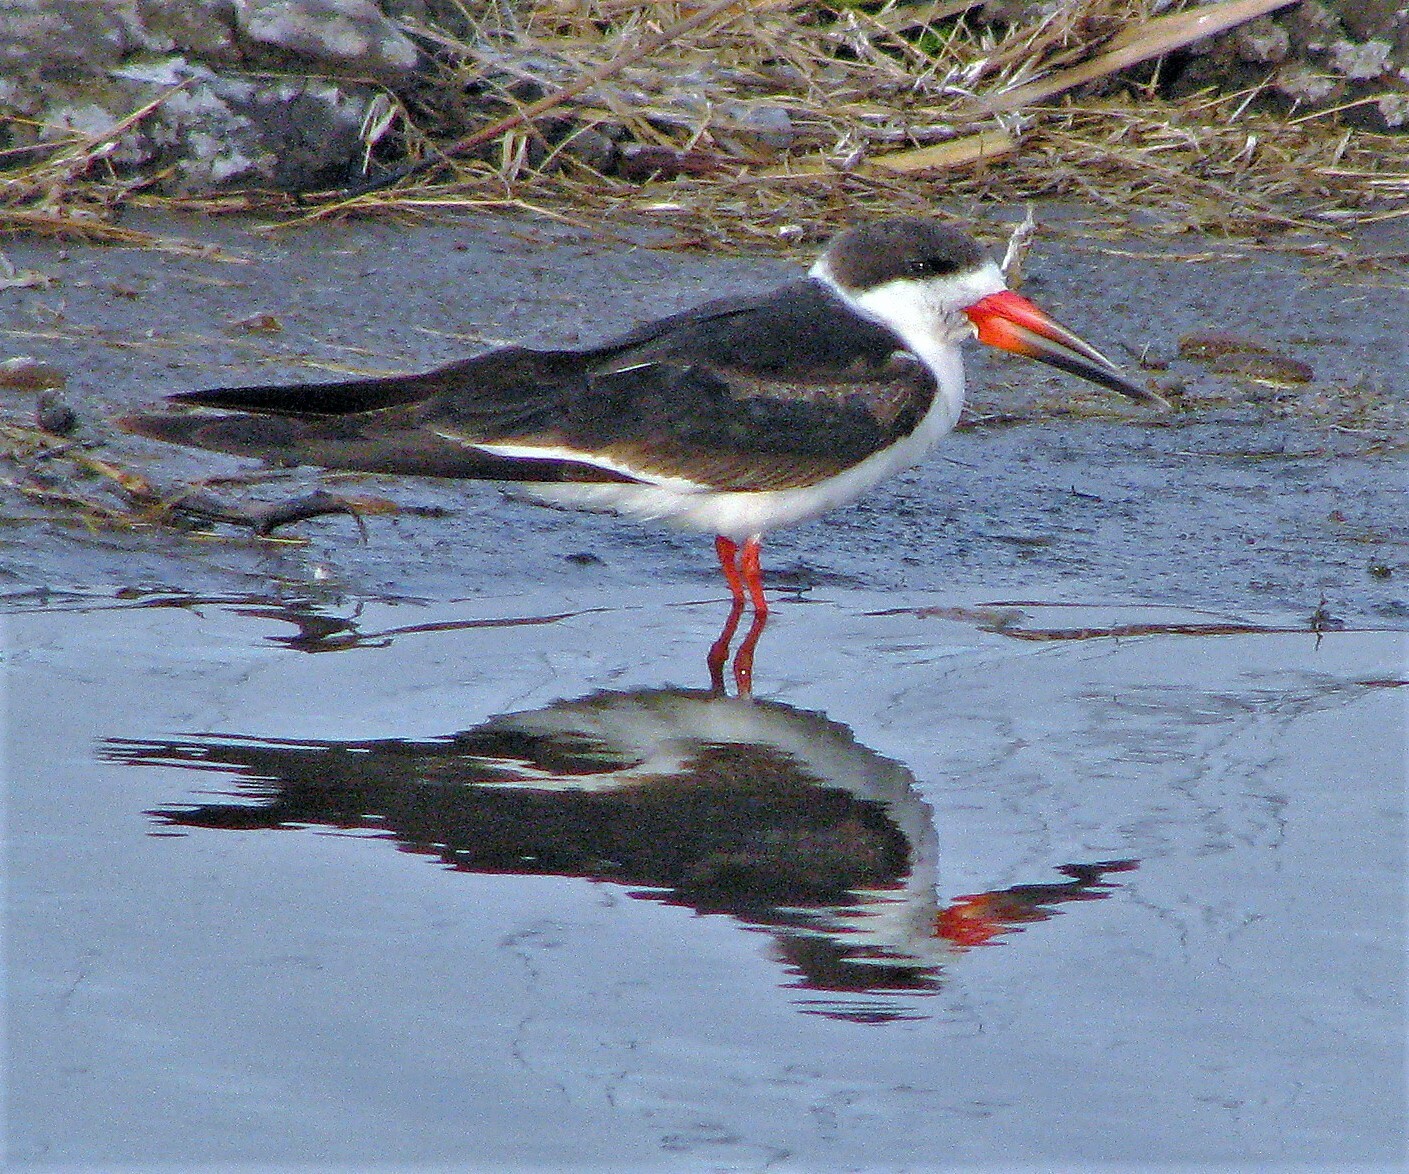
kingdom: Animalia
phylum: Chordata
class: Aves
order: Charadriiformes
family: Laridae
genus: Rynchops
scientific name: Rynchops niger
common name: Black skimmer
